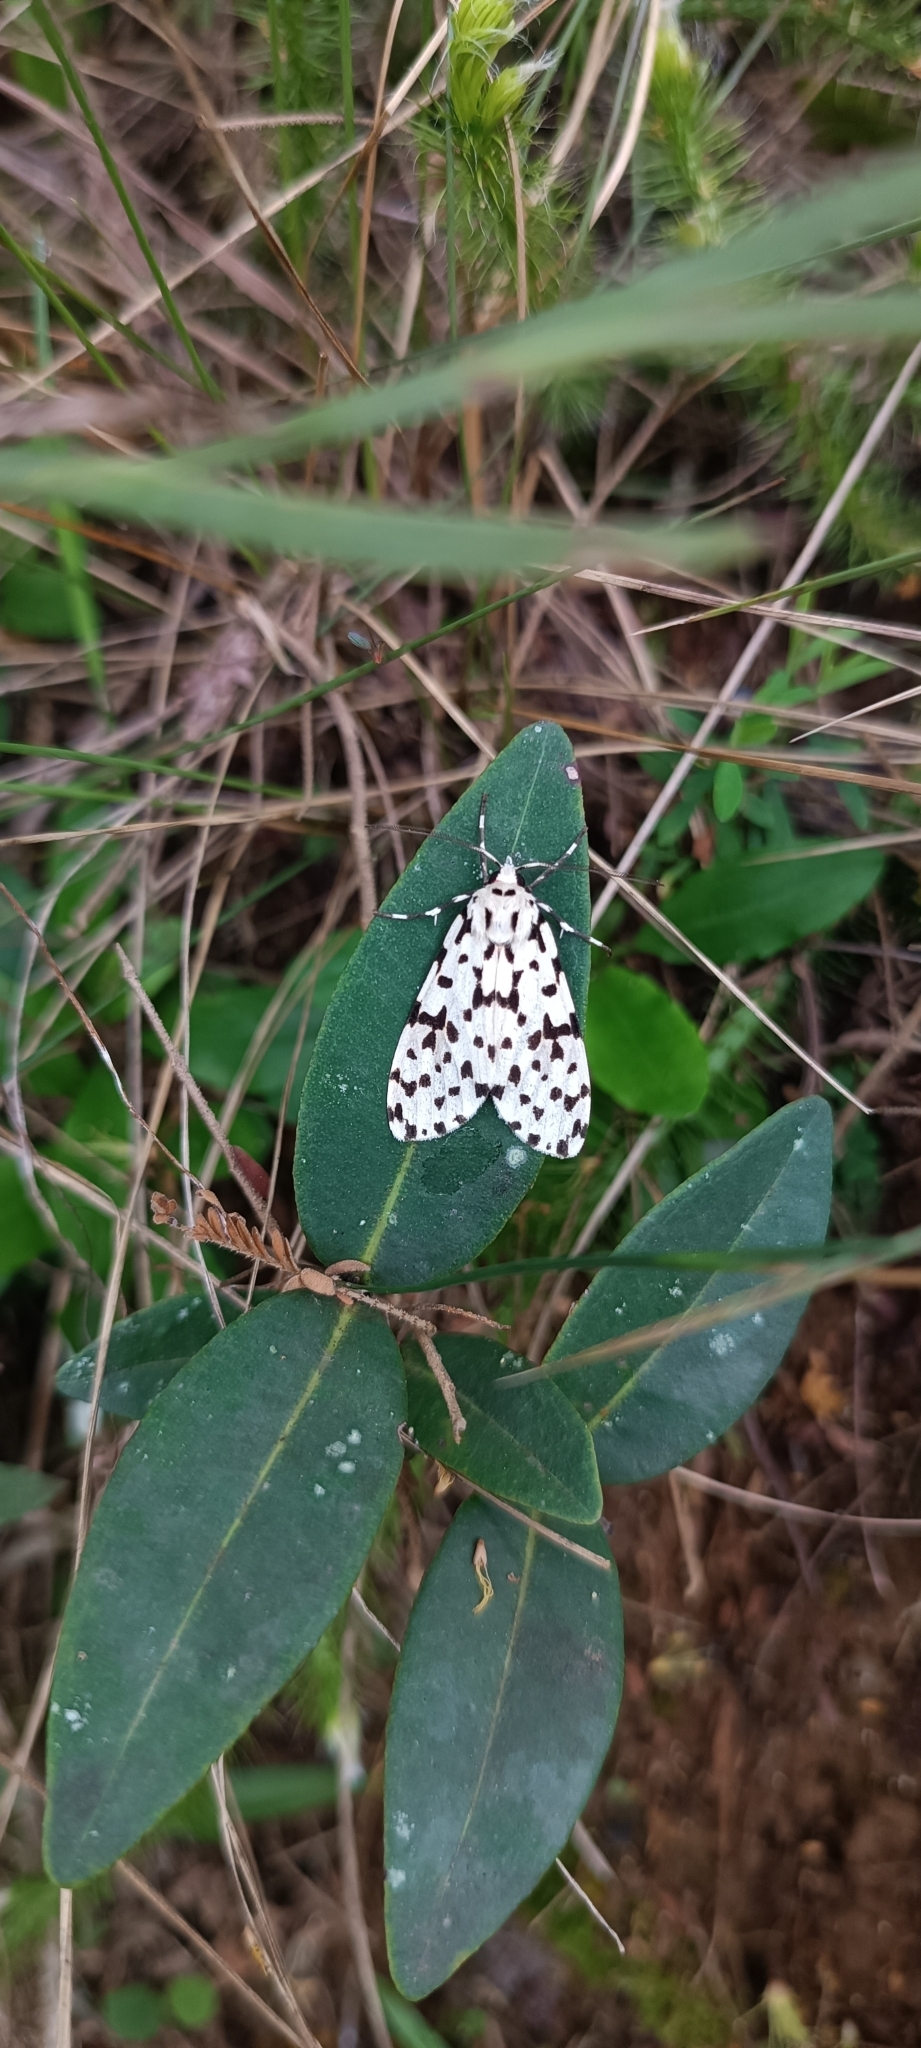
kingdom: Animalia
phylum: Arthropoda
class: Insecta
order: Lepidoptera
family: Erebidae
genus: Eucereon
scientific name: Eucereon punctata
